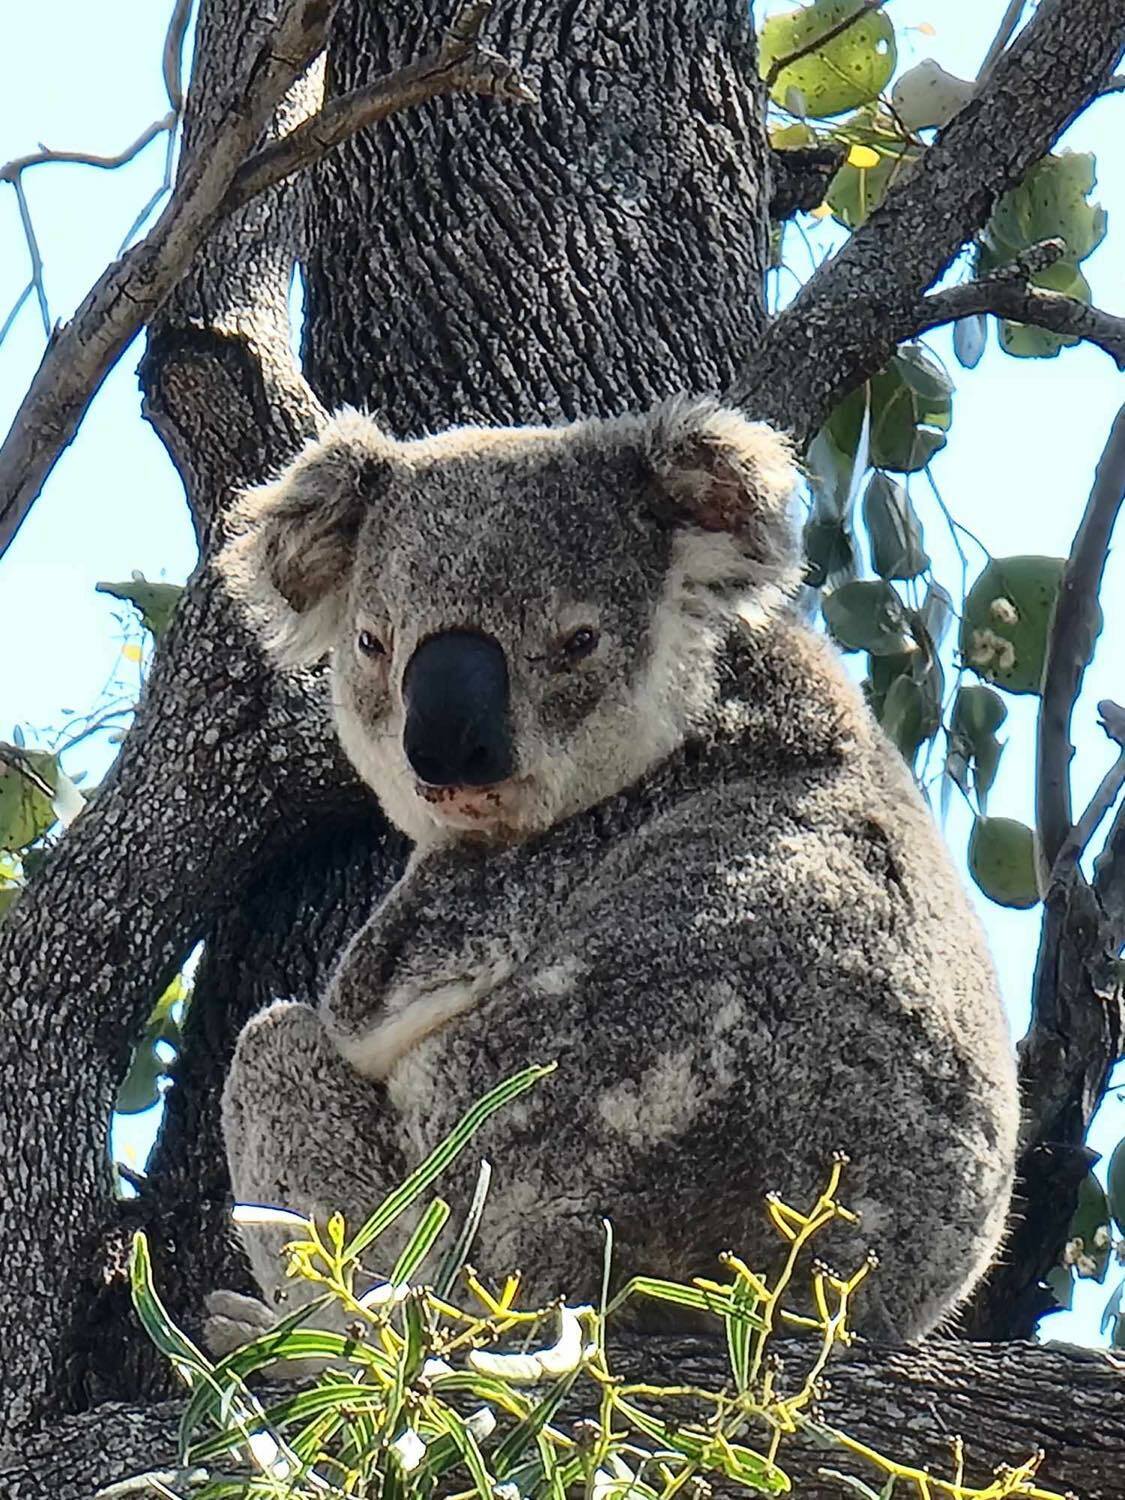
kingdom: Animalia
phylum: Chordata
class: Mammalia
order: Diprotodontia
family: Phascolarctidae
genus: Phascolarctos
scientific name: Phascolarctos cinereus
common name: Koala
